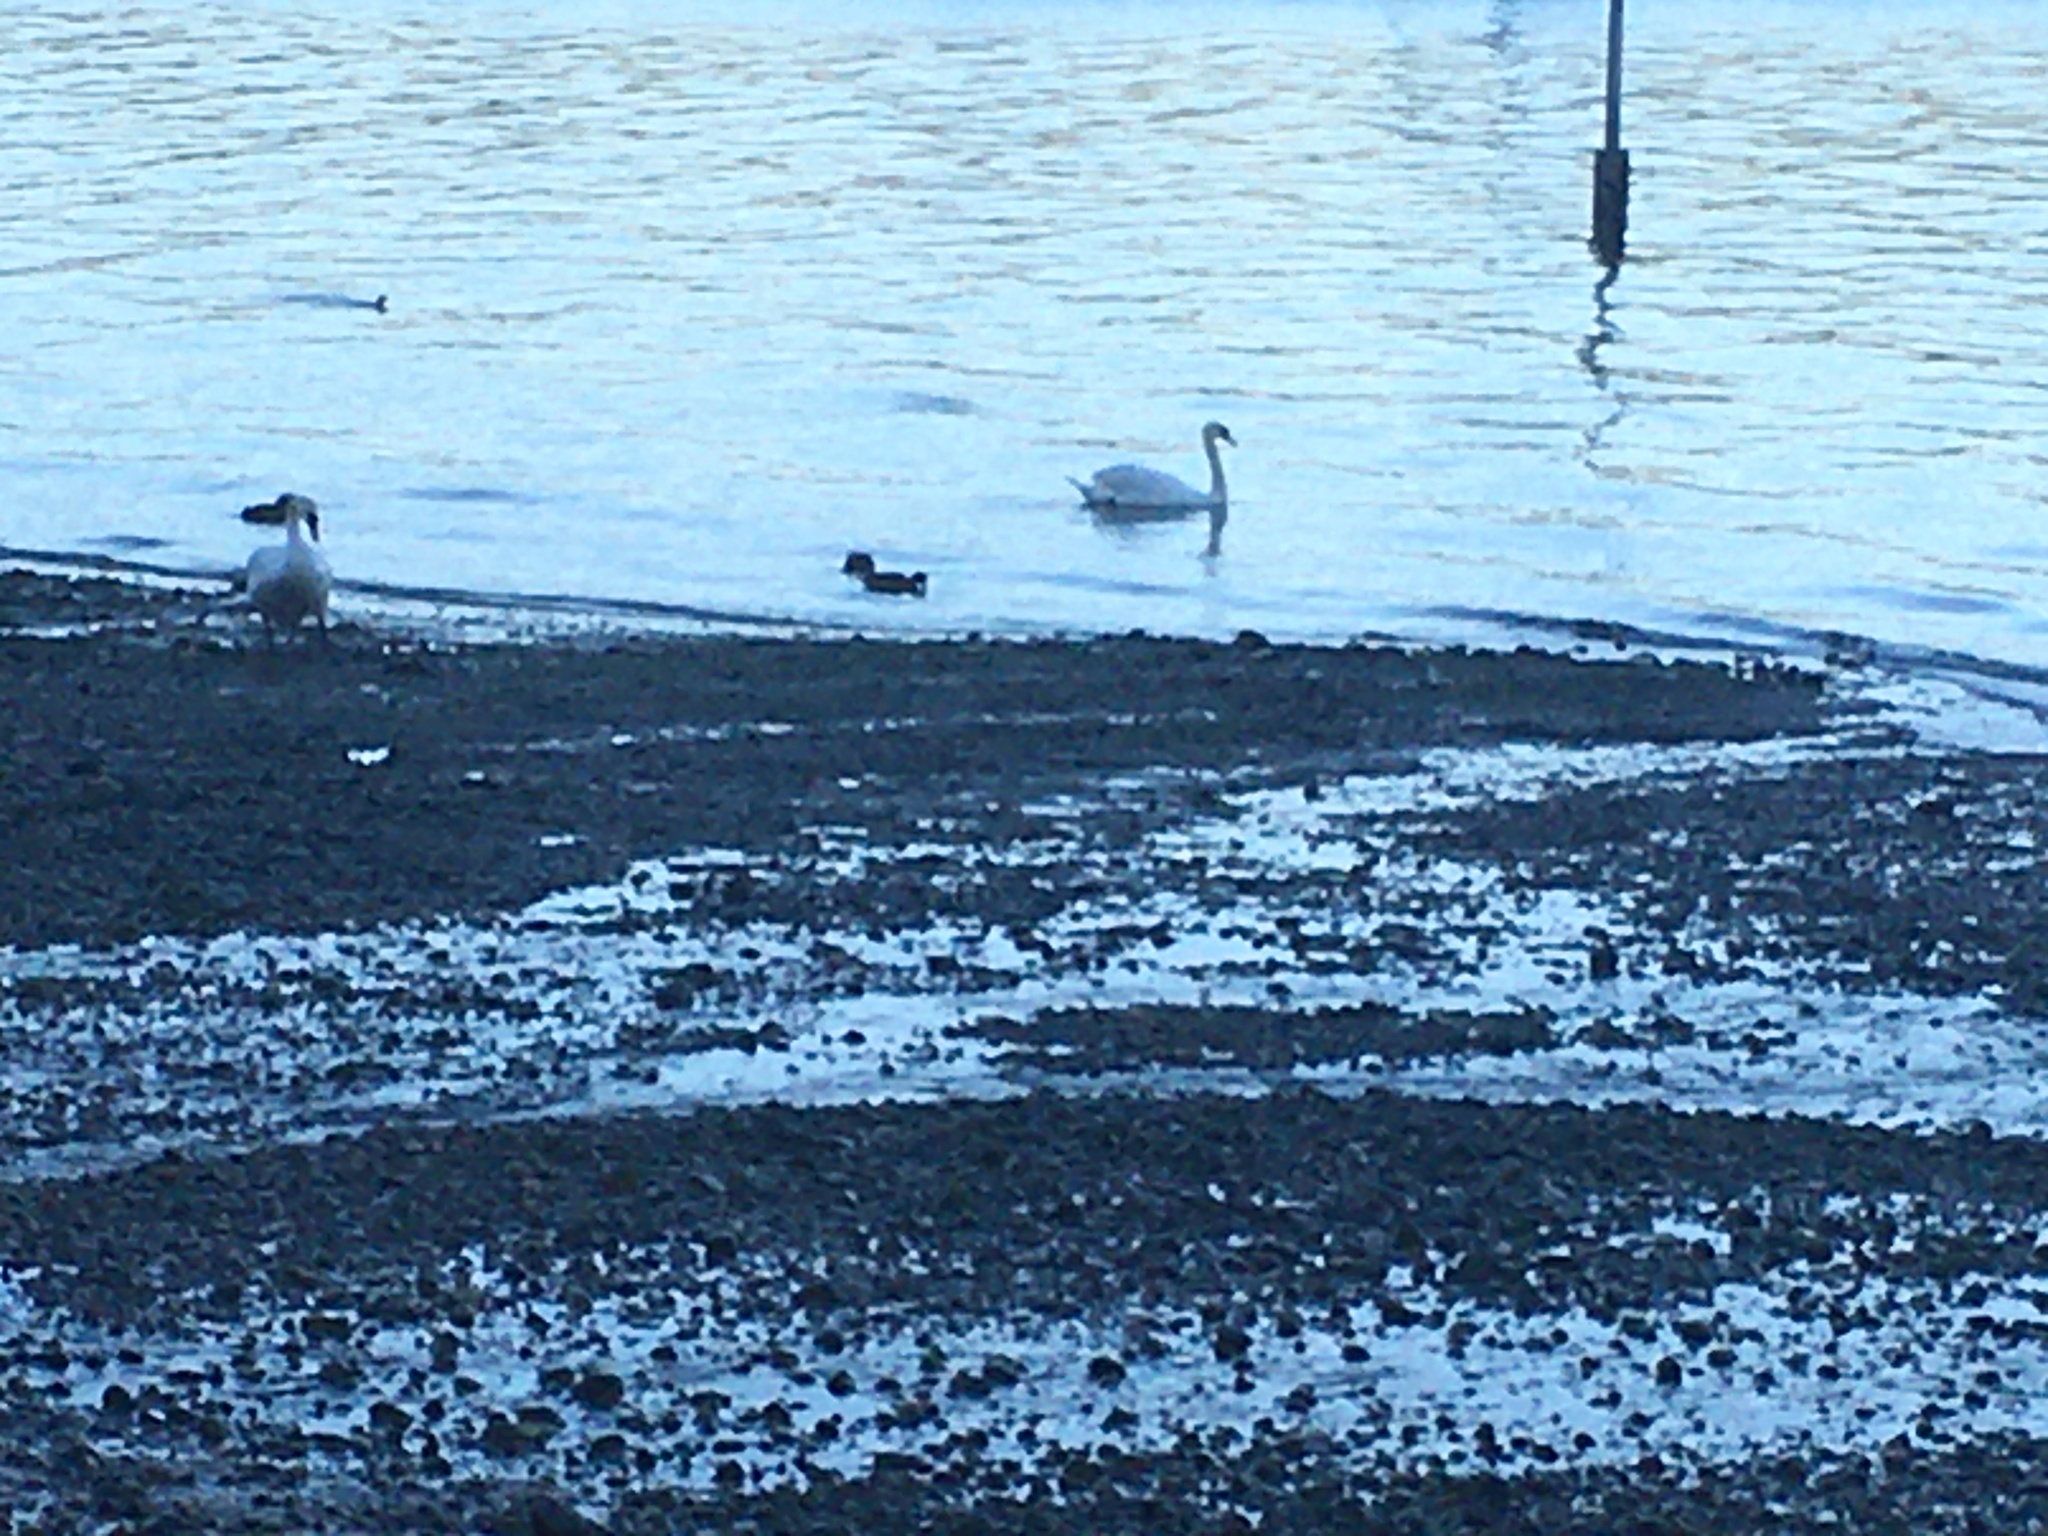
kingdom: Animalia
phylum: Chordata
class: Aves
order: Anseriformes
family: Anatidae
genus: Cygnus
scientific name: Cygnus olor
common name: Mute swan
